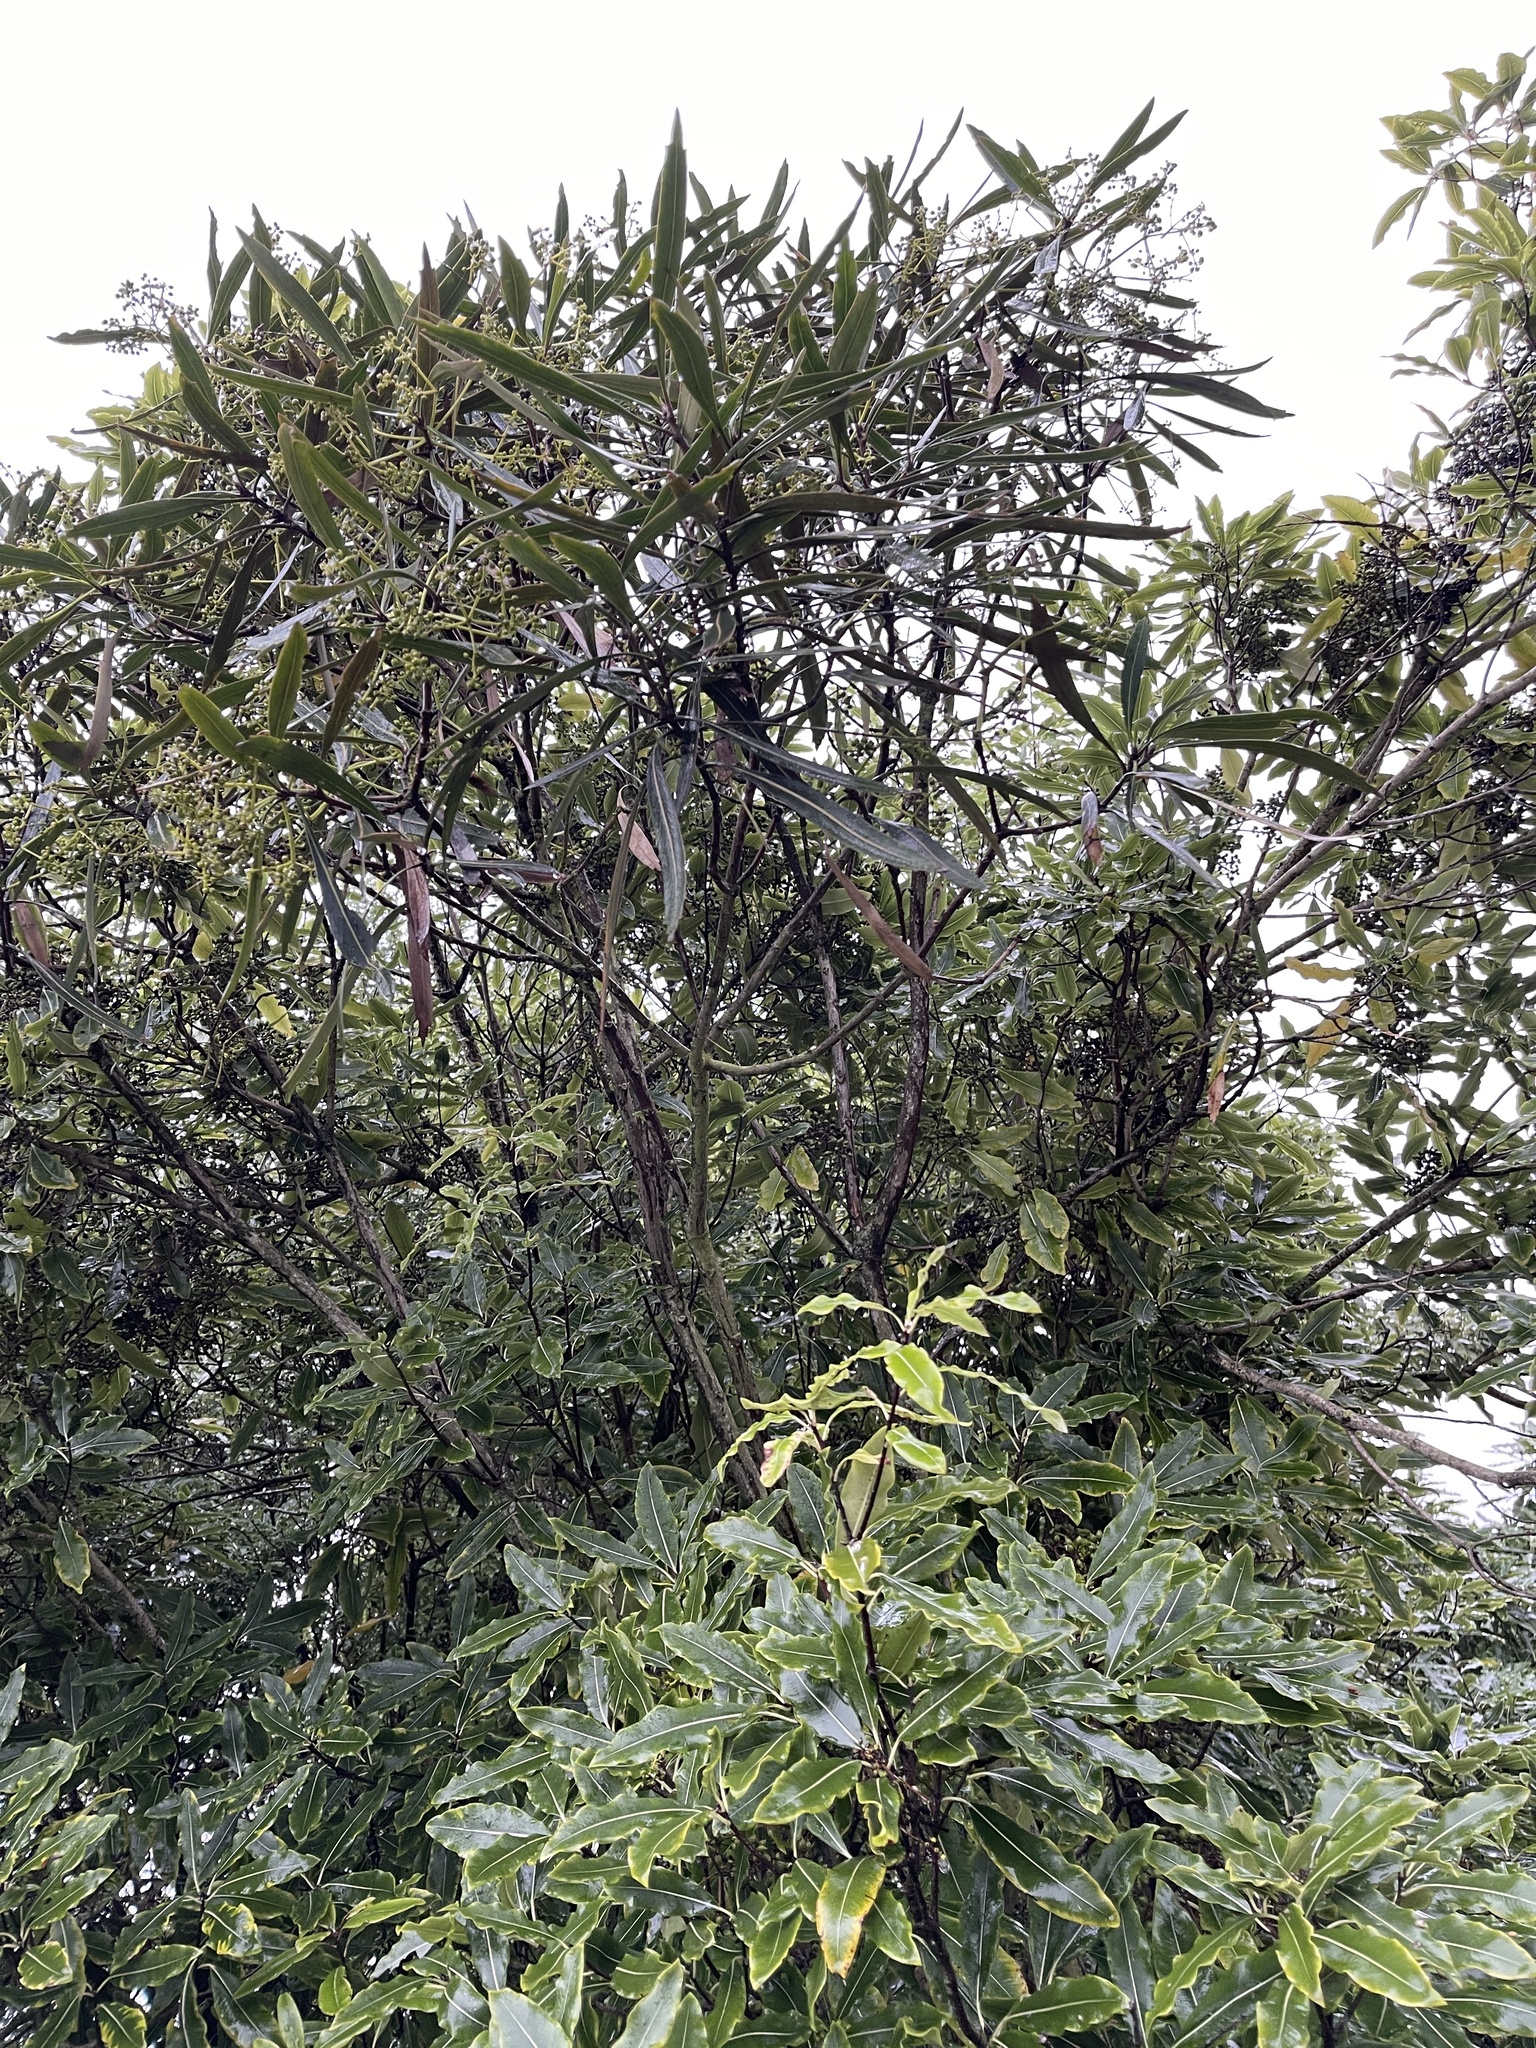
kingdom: Plantae
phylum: Tracheophyta
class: Magnoliopsida
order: Apiales
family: Araliaceae
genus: Pseudopanax
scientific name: Pseudopanax crassifolius
